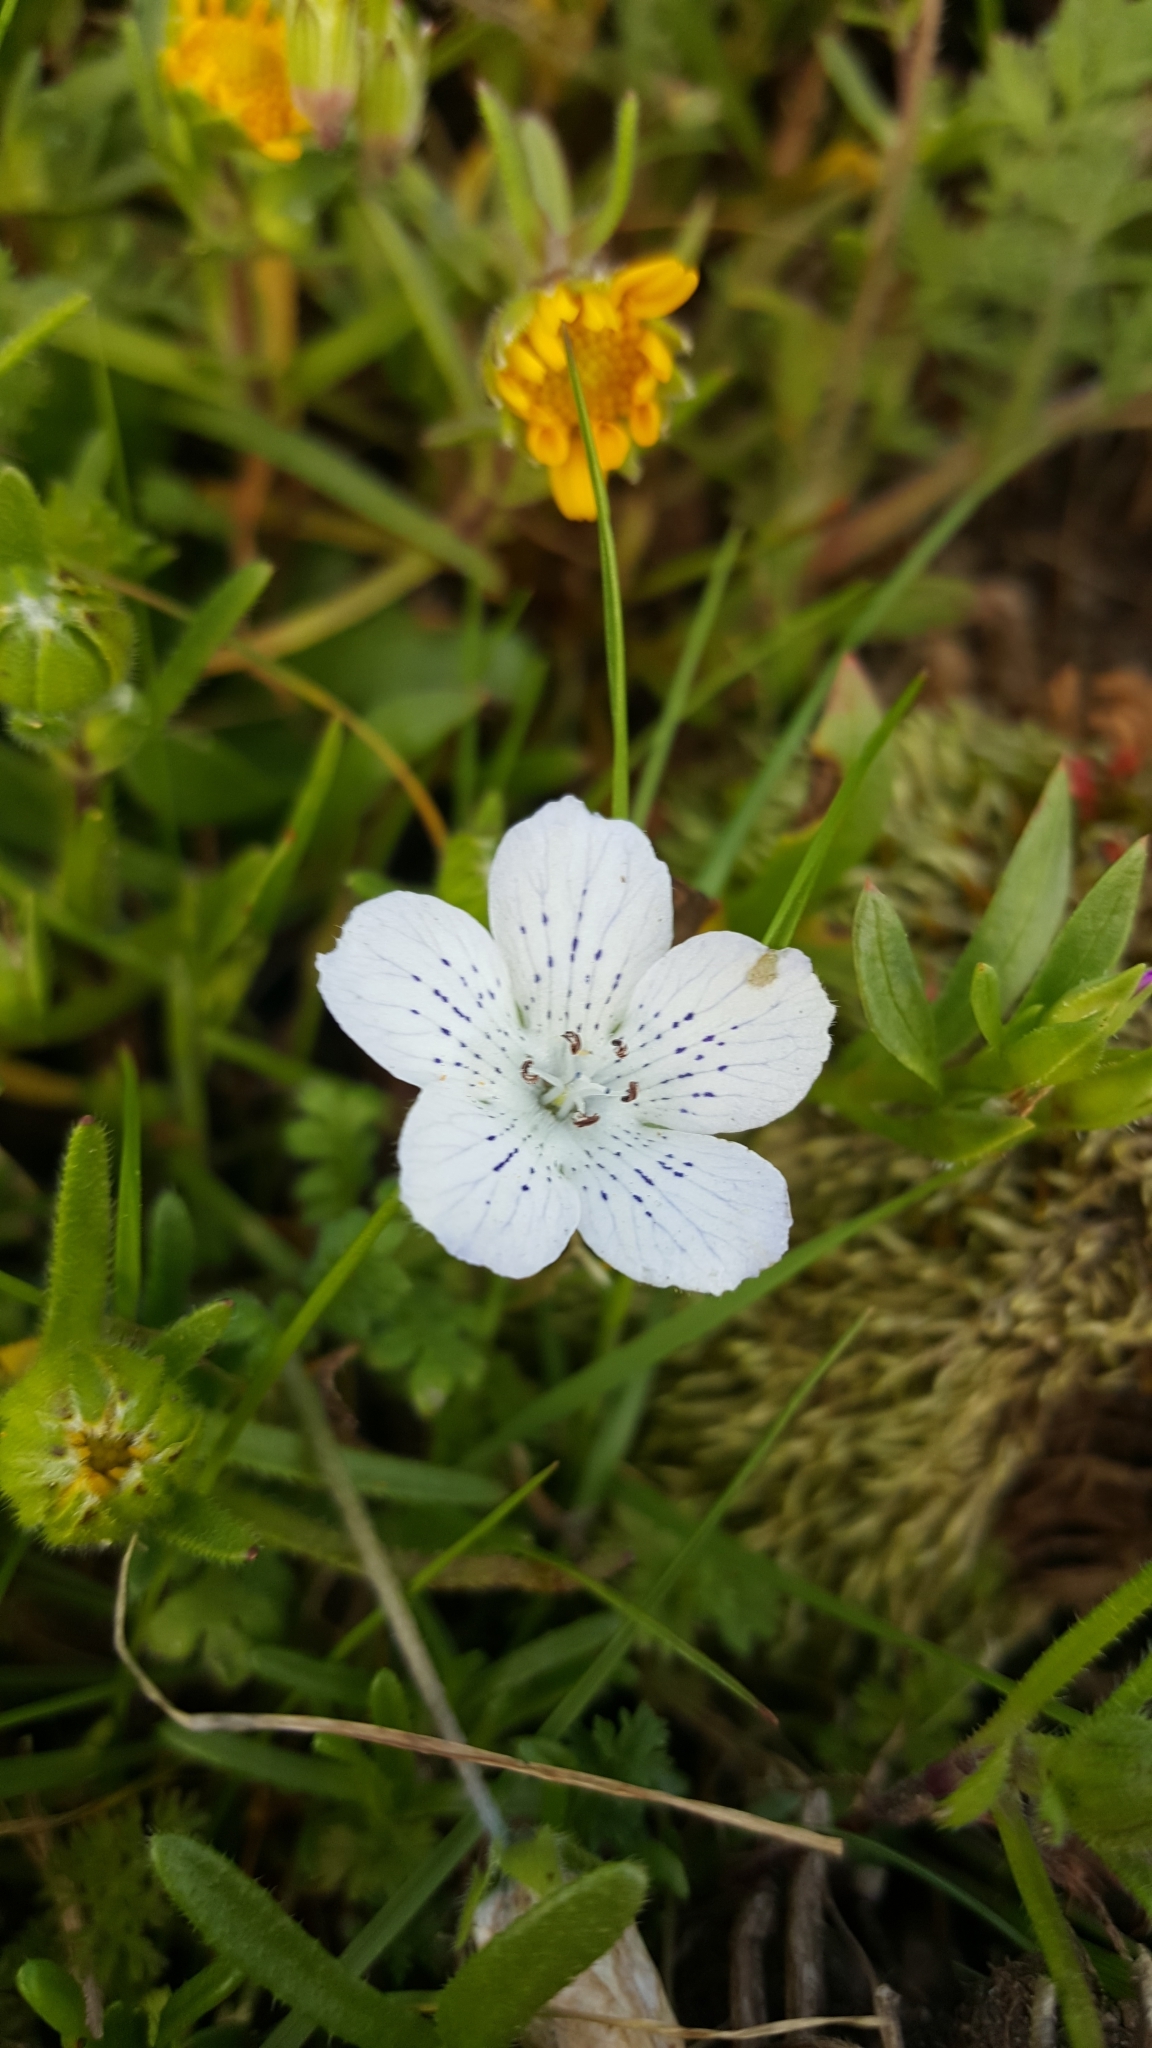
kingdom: Plantae
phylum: Tracheophyta
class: Magnoliopsida
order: Boraginales
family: Hydrophyllaceae
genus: Nemophila
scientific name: Nemophila menziesii
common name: Baby's-blue-eyes
